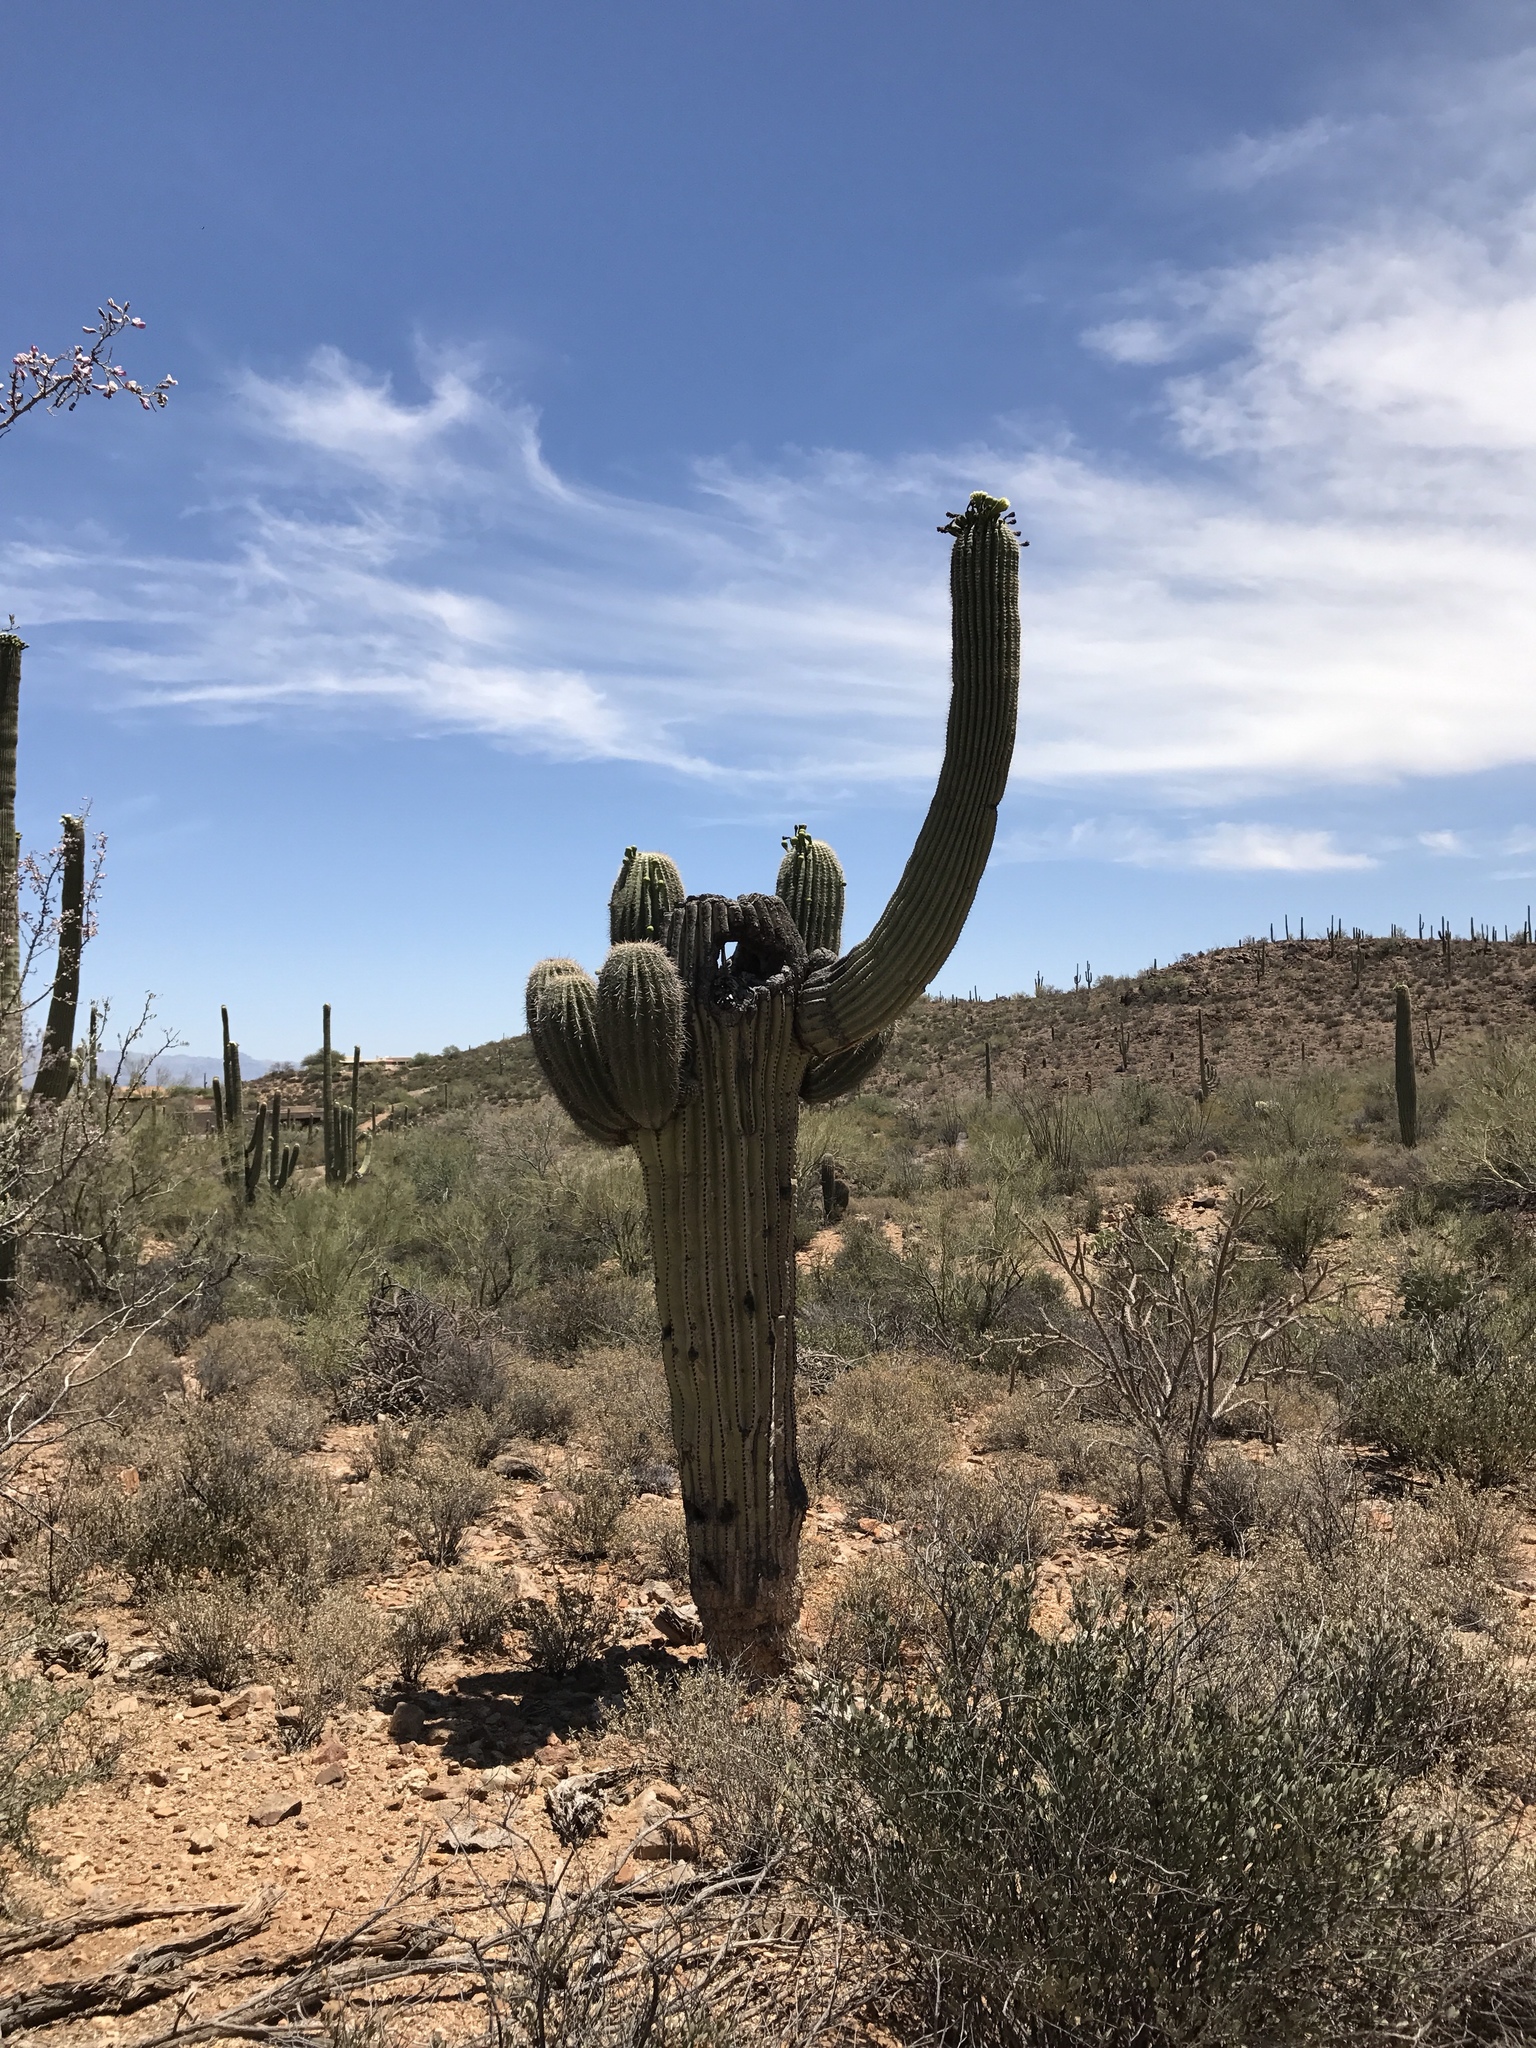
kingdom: Plantae
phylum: Tracheophyta
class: Magnoliopsida
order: Caryophyllales
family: Cactaceae
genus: Carnegiea
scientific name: Carnegiea gigantea
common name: Saguaro
